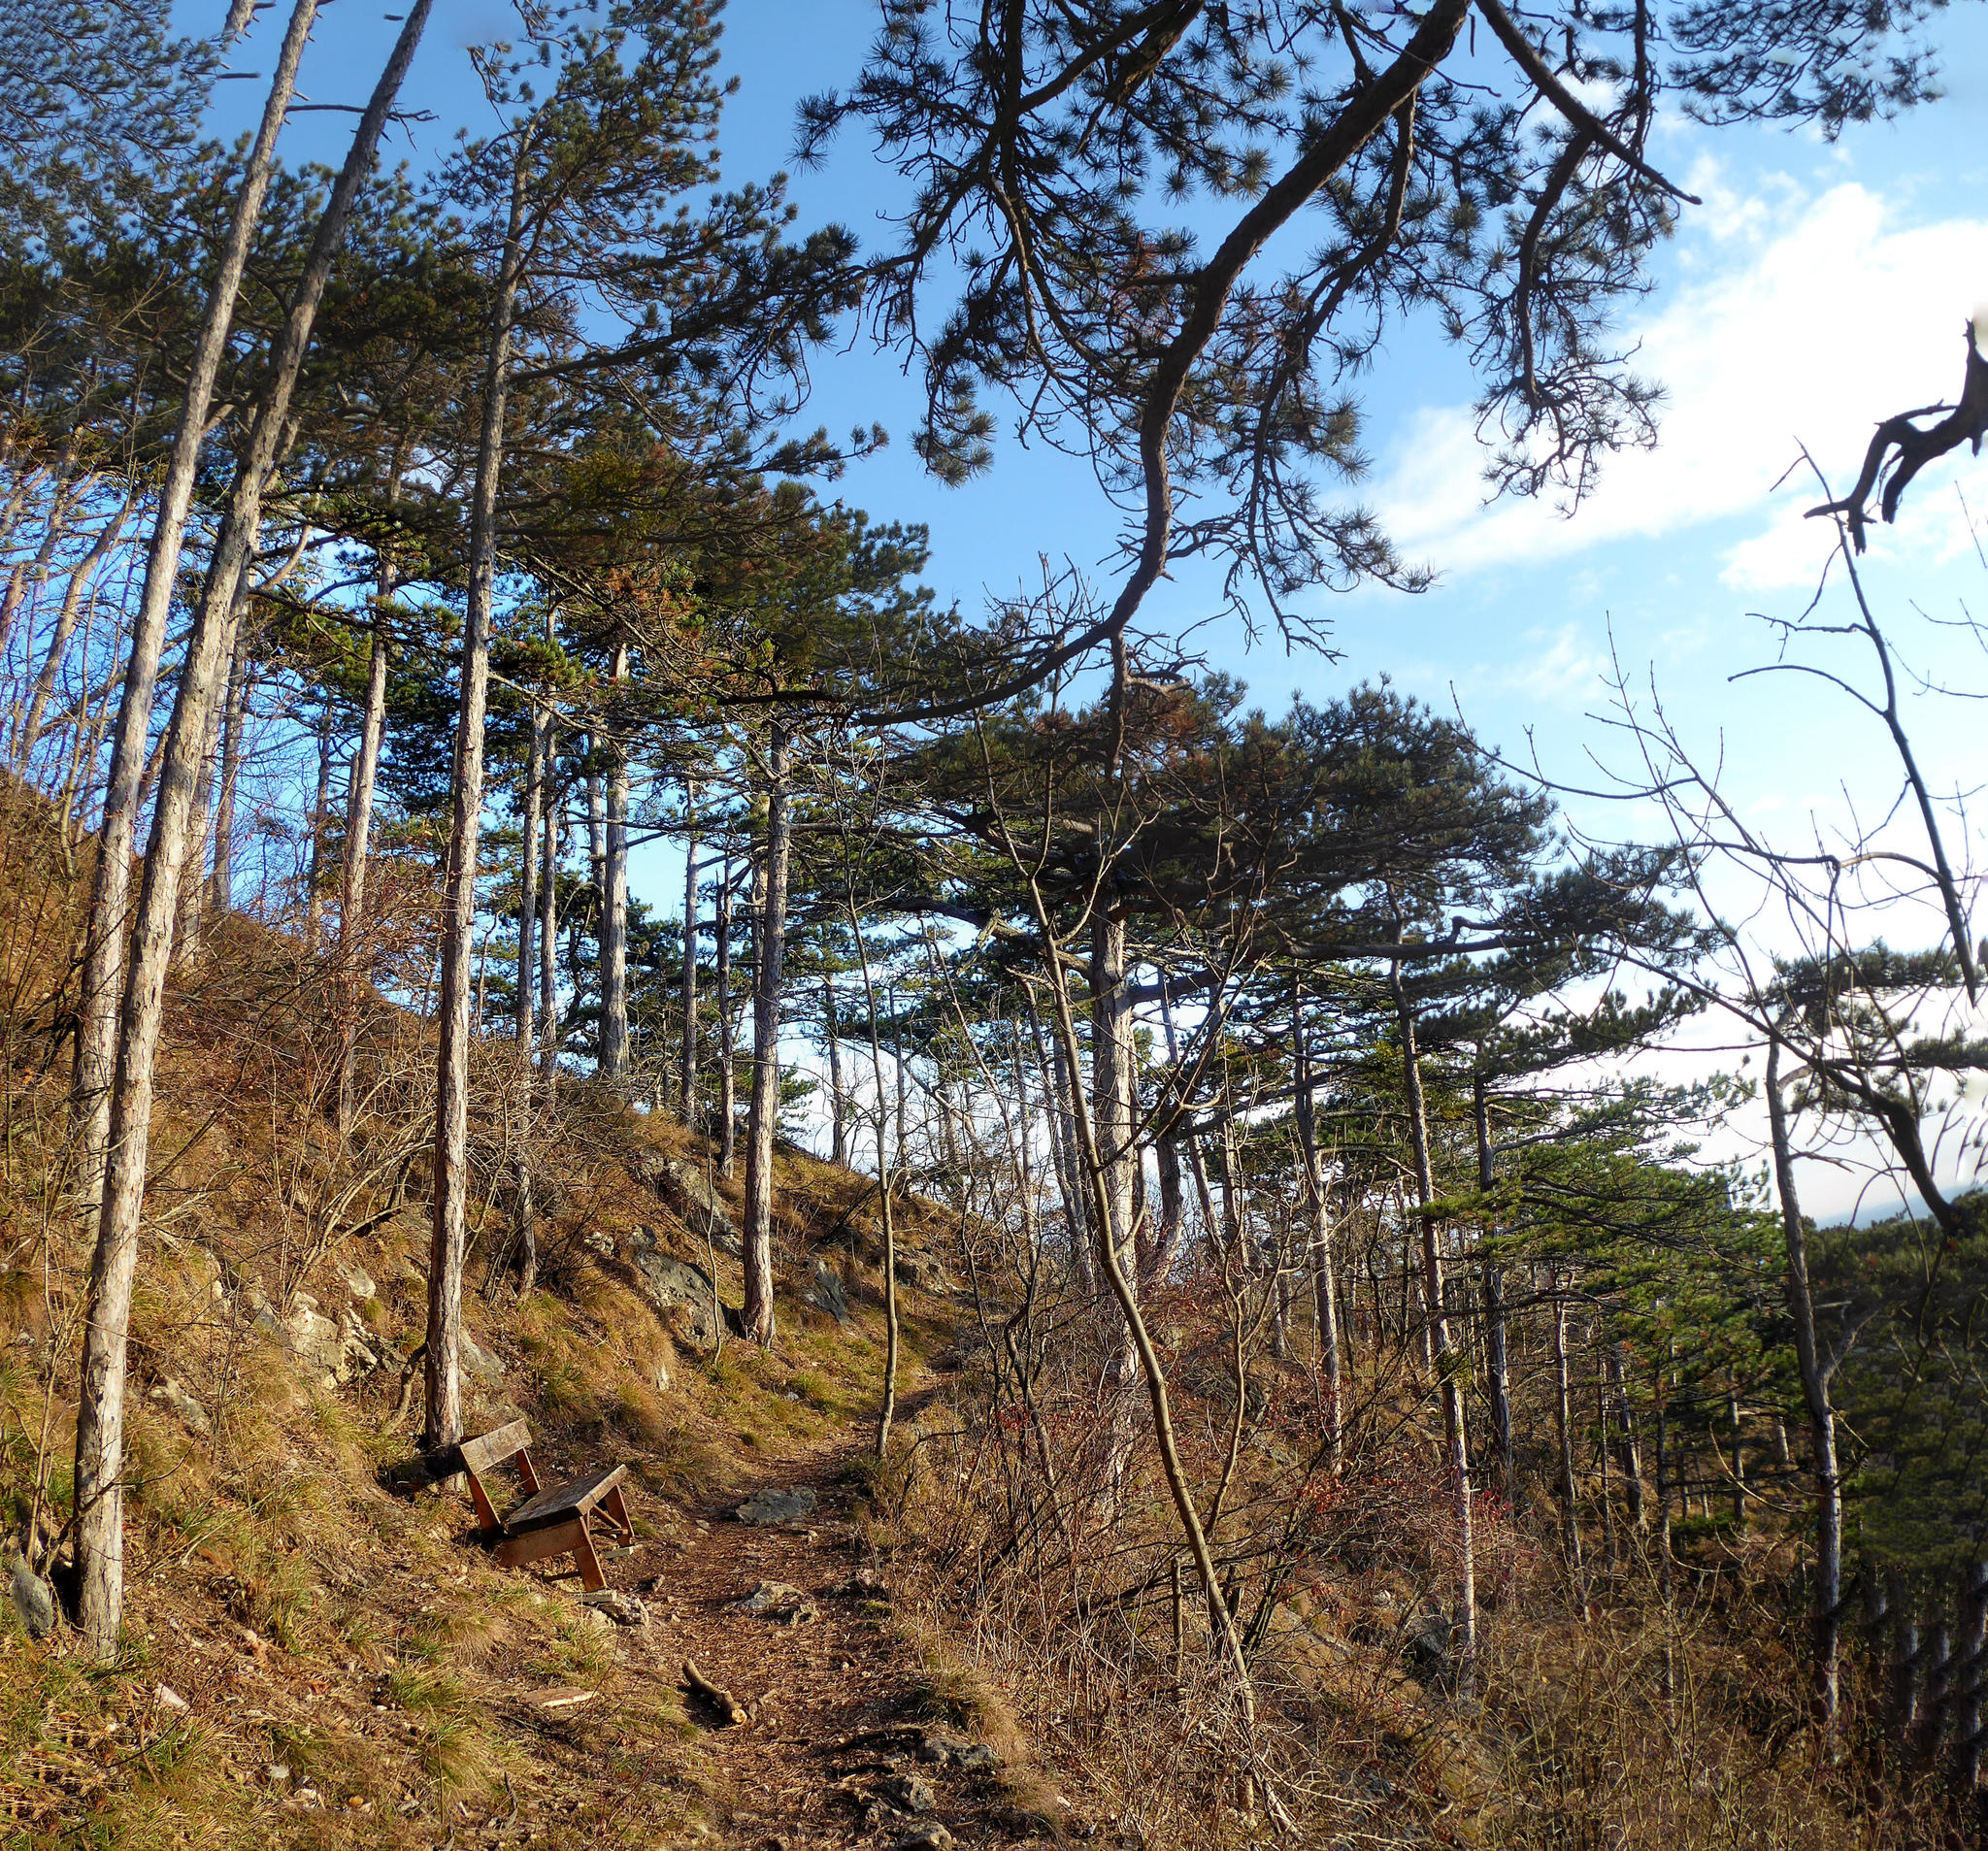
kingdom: Plantae
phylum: Tracheophyta
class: Pinopsida
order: Pinales
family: Pinaceae
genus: Pinus
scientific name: Pinus nigra
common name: Austrian pine
